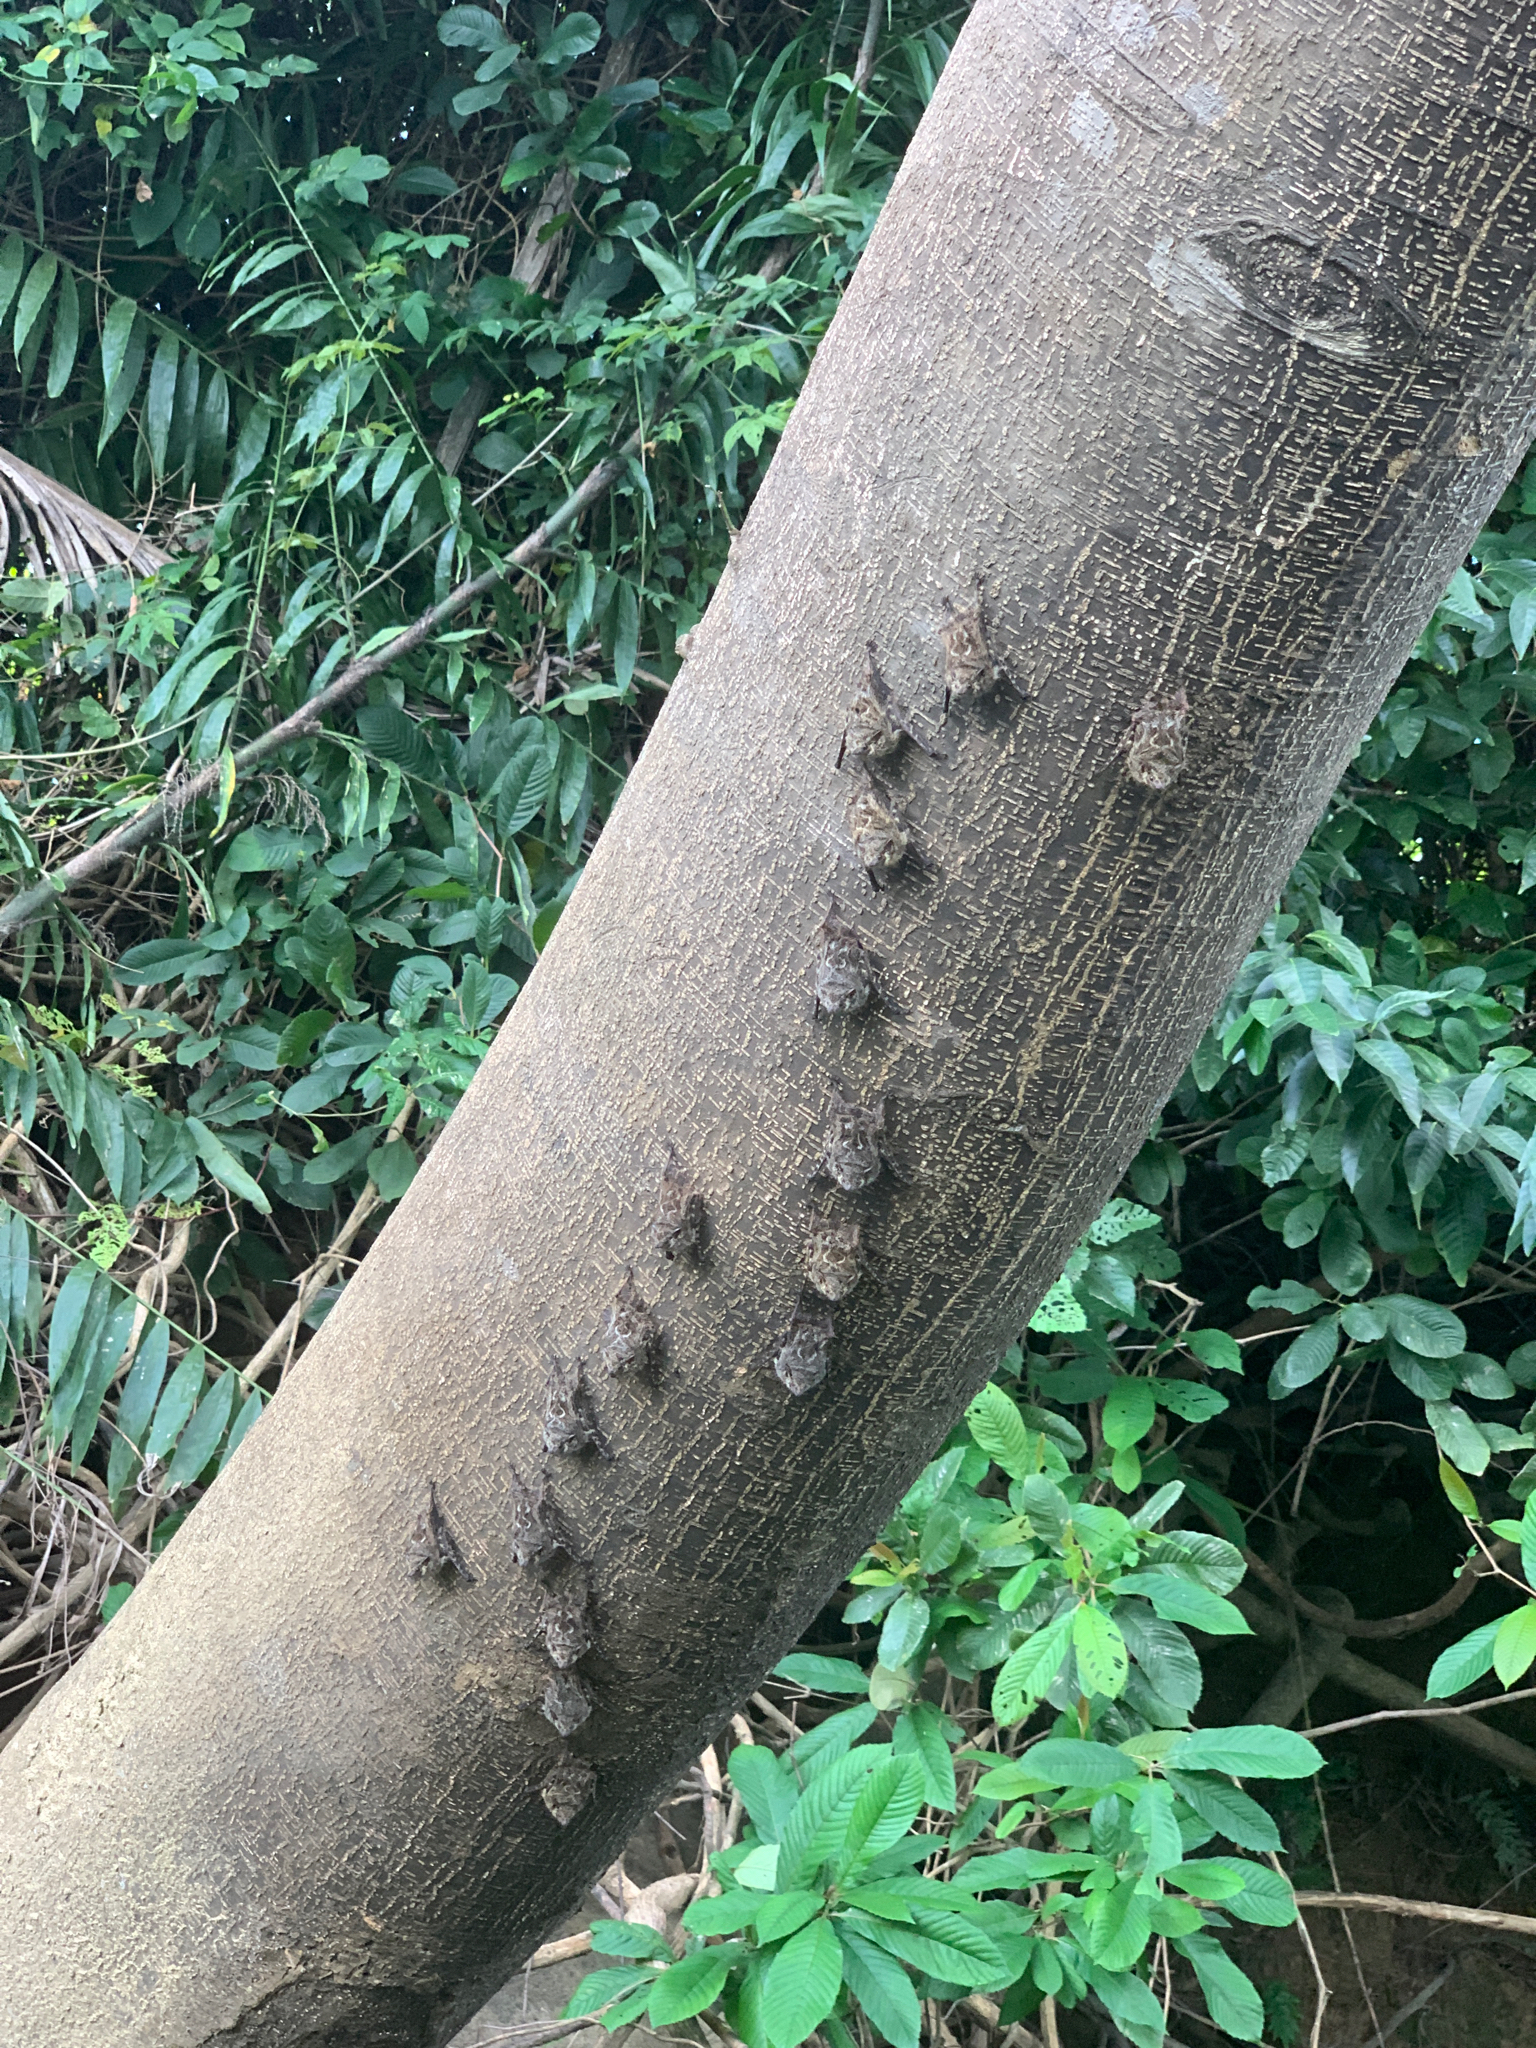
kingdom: Animalia
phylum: Chordata
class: Mammalia
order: Chiroptera
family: Emballonuridae
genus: Rhynchonycteris
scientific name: Rhynchonycteris naso
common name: Proboscis bat
